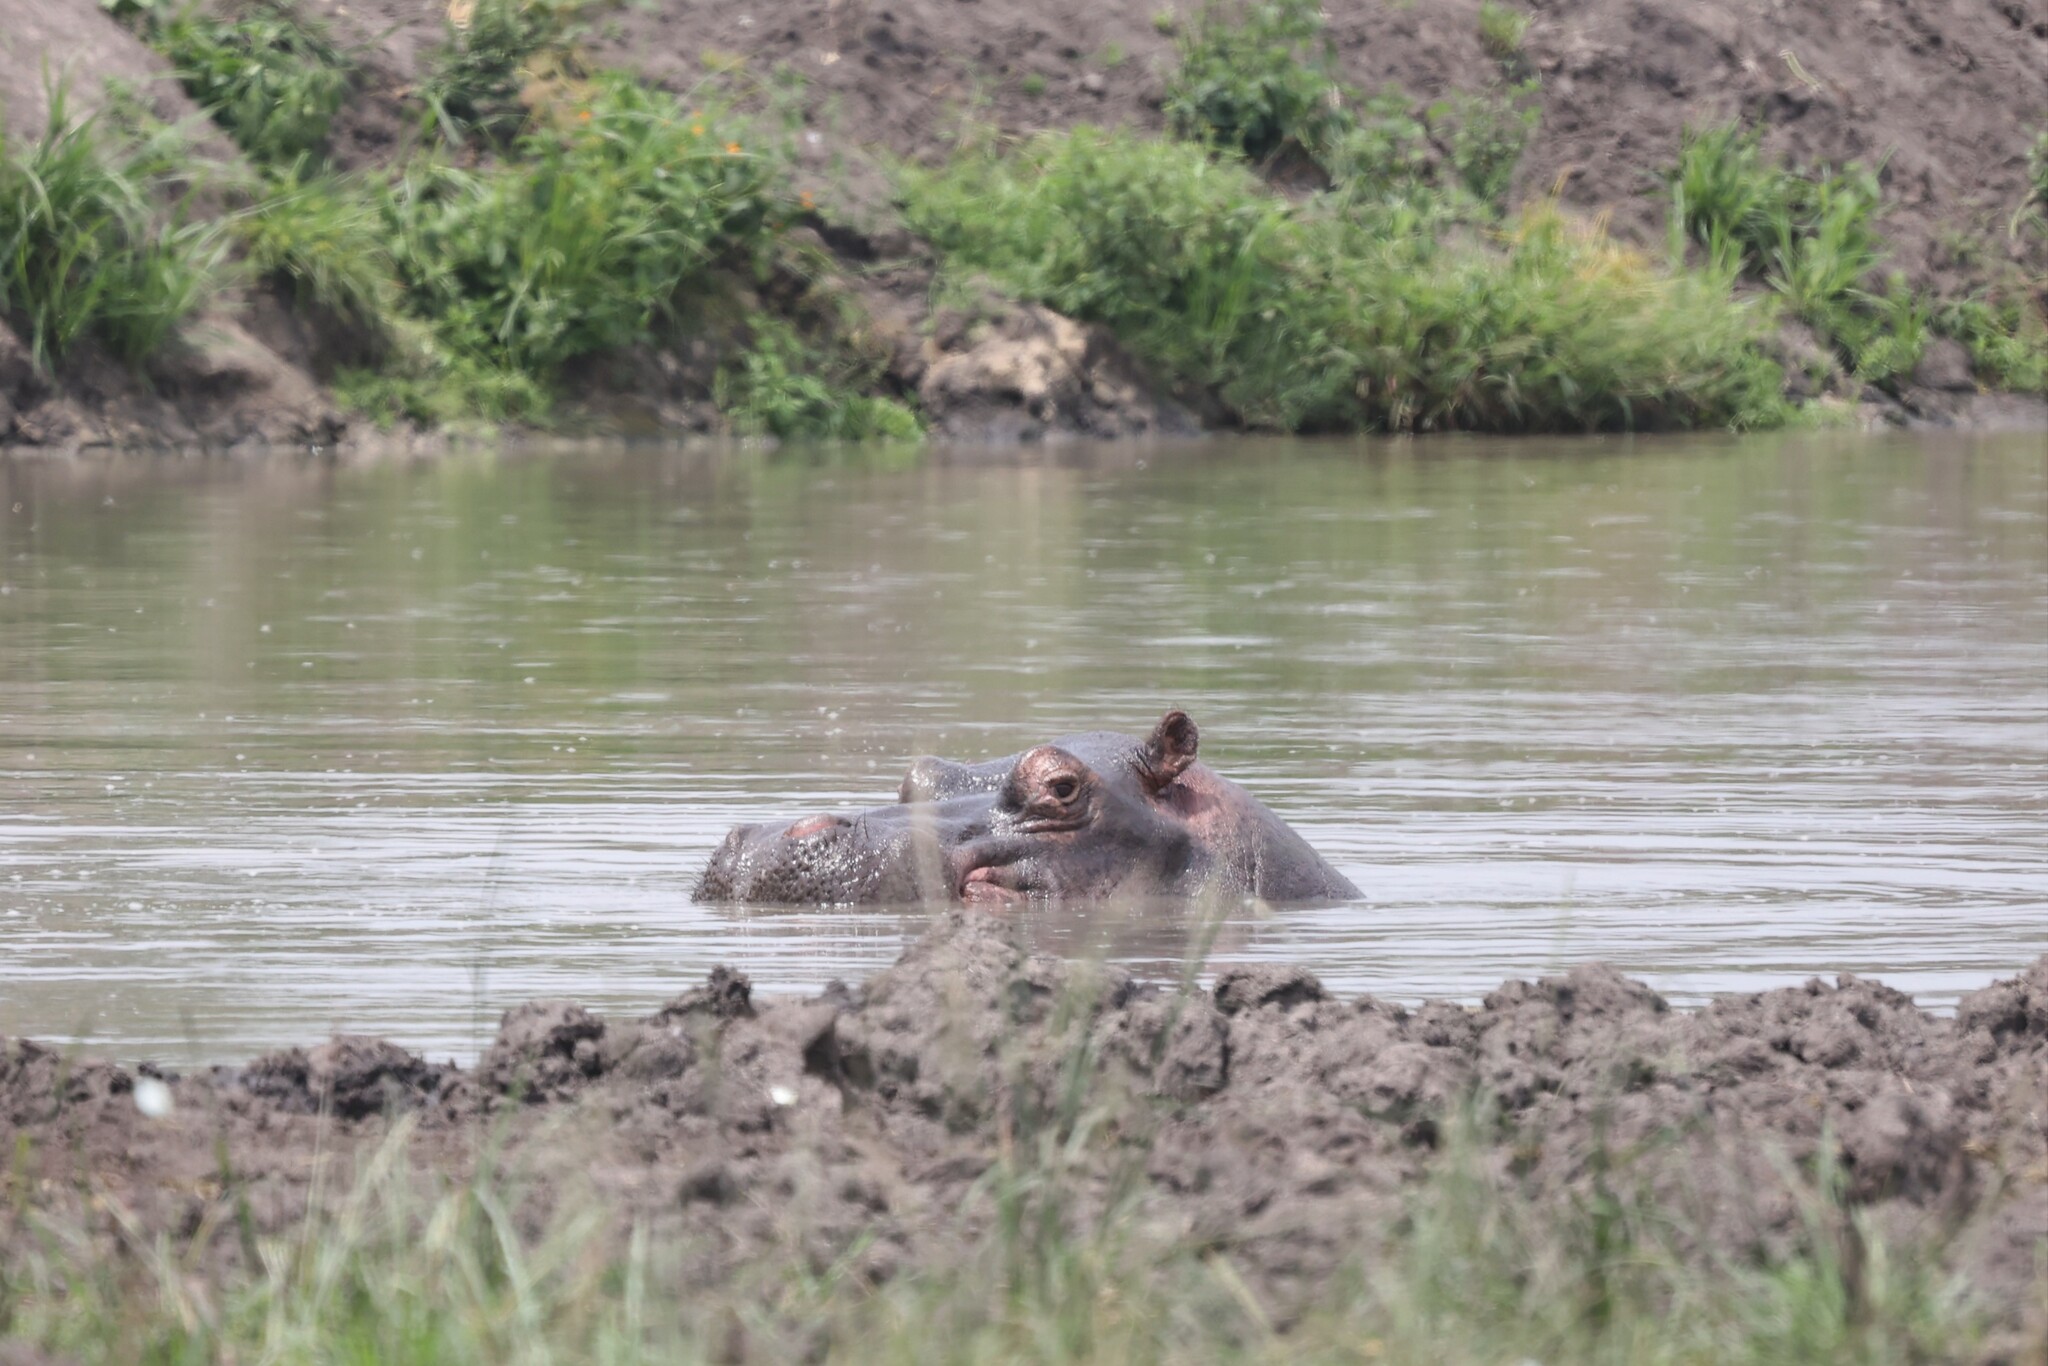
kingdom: Animalia
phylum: Chordata
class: Mammalia
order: Artiodactyla
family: Hippopotamidae
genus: Hippopotamus
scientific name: Hippopotamus amphibius
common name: Common hippopotamus
